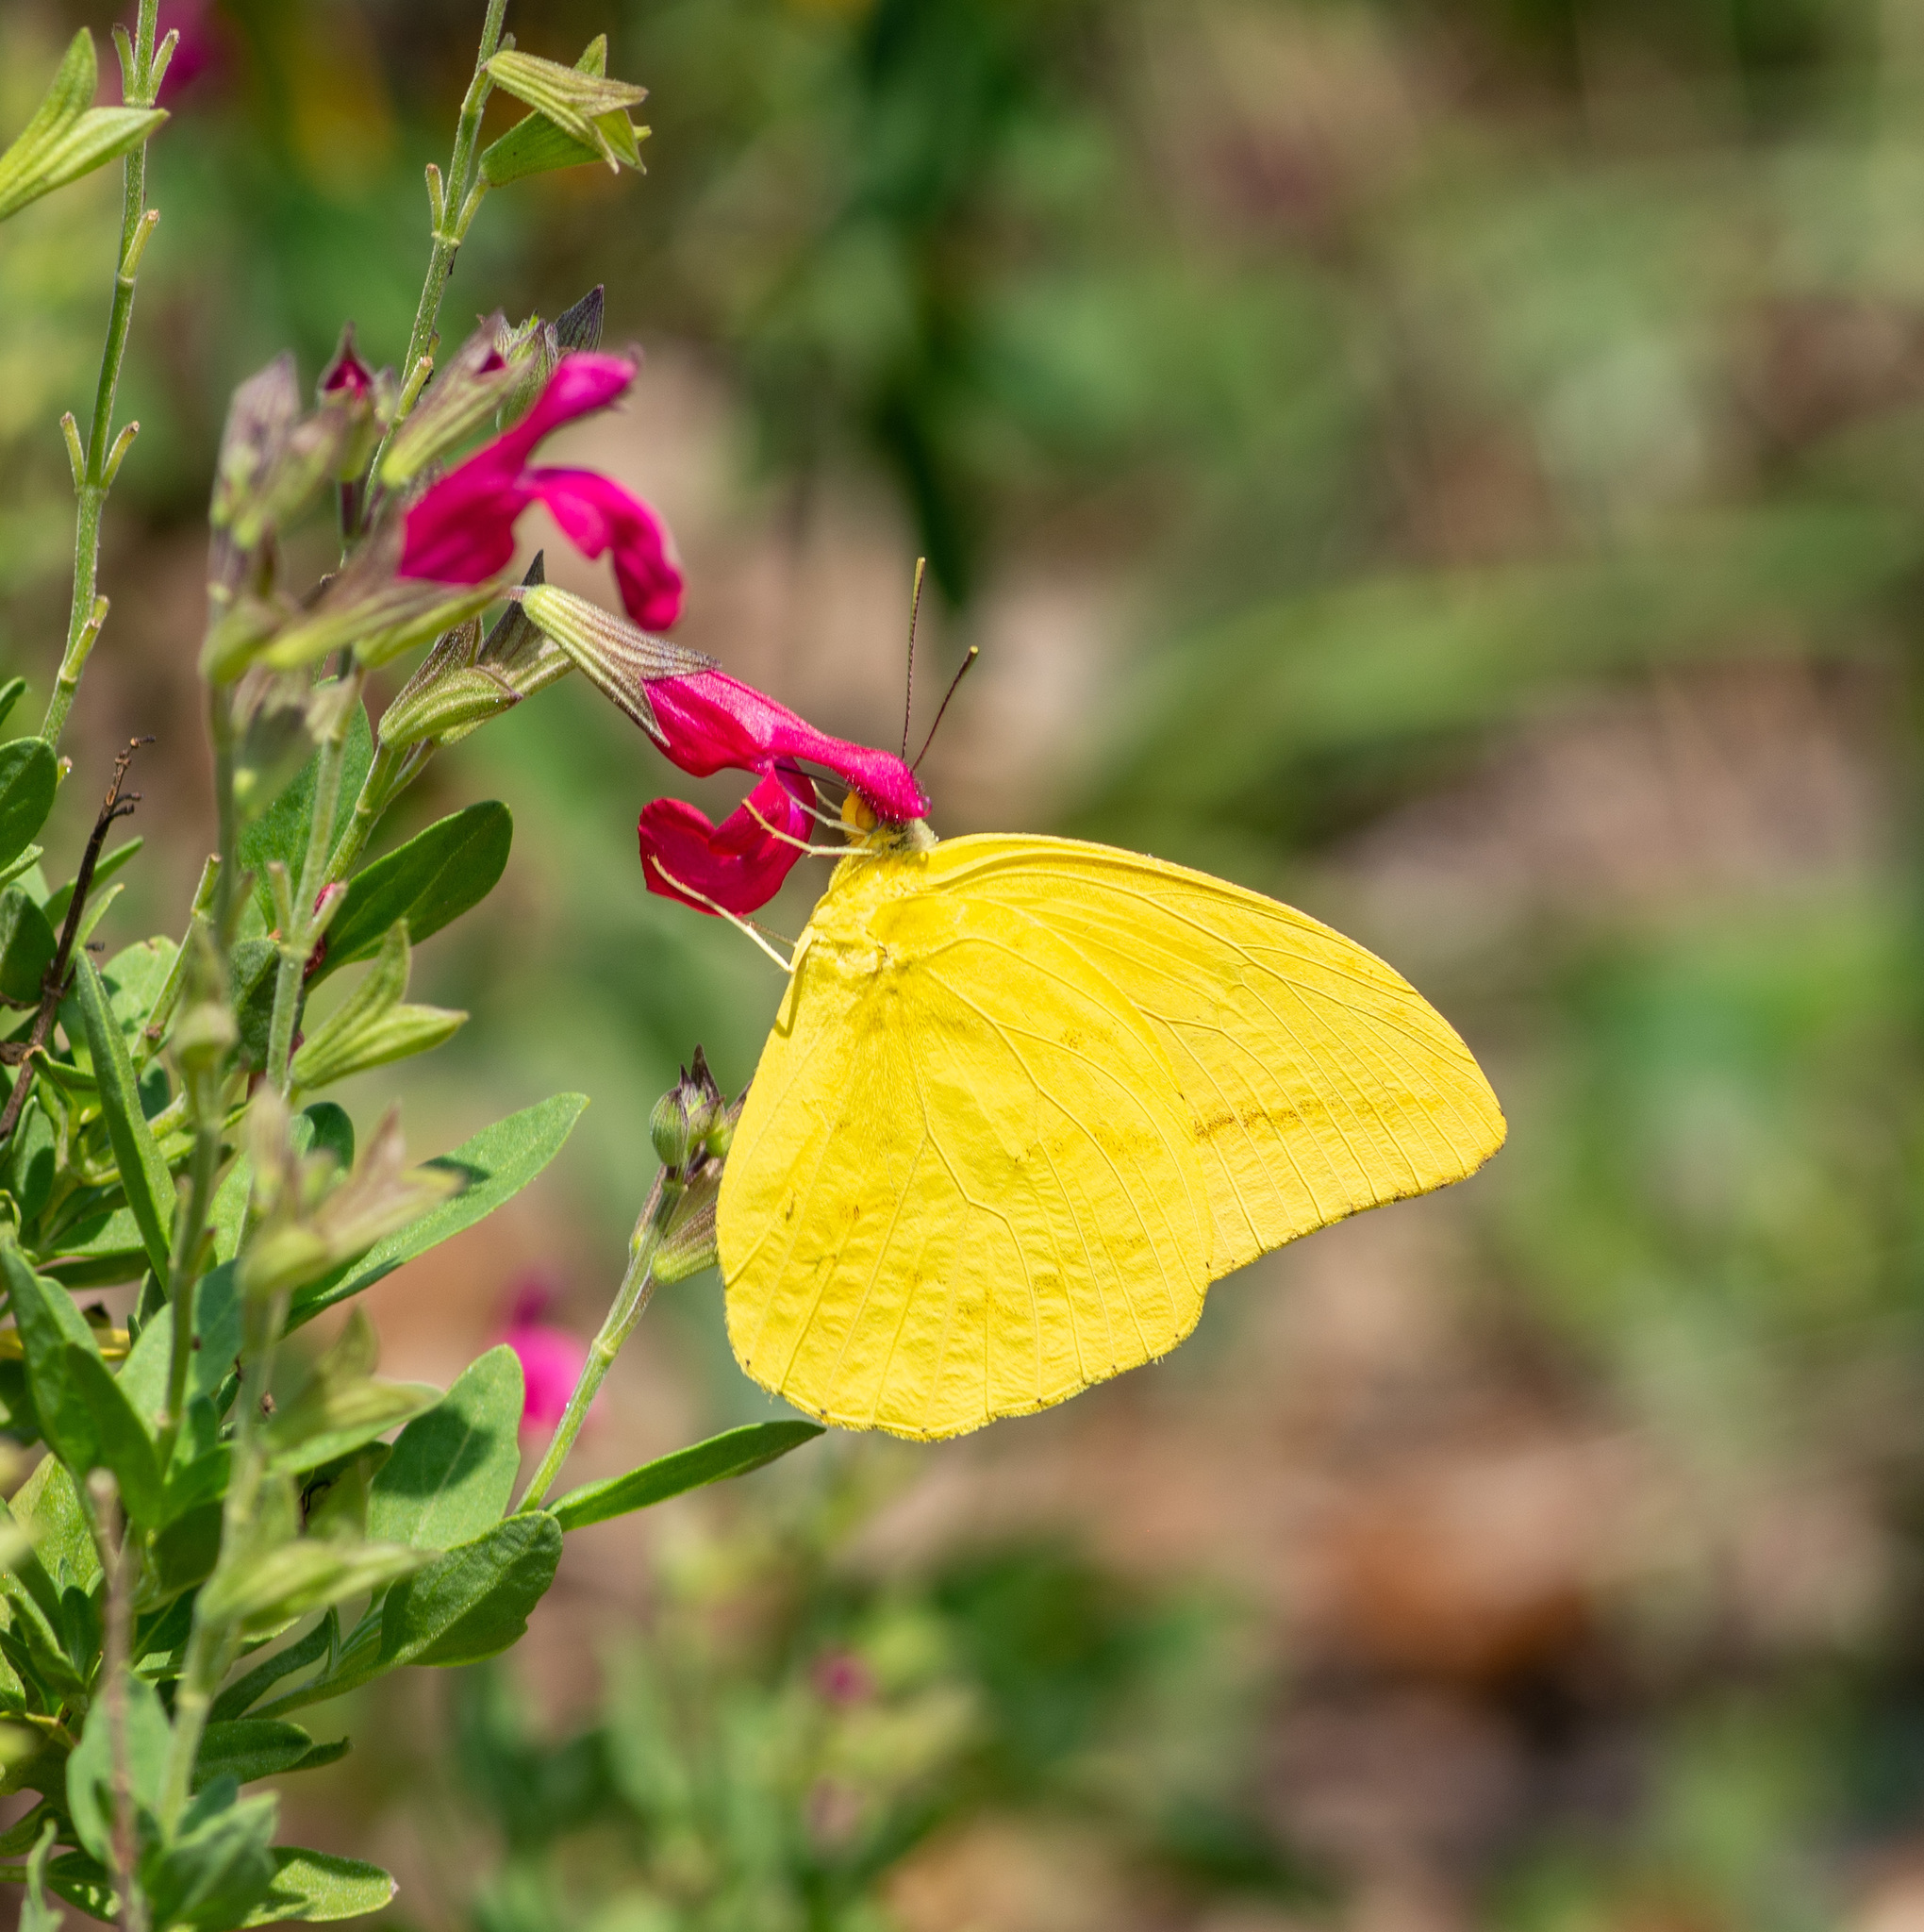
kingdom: Animalia
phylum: Arthropoda
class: Insecta
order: Lepidoptera
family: Pieridae
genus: Phoebis
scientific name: Phoebis agarithe
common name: Large orange sulphur
